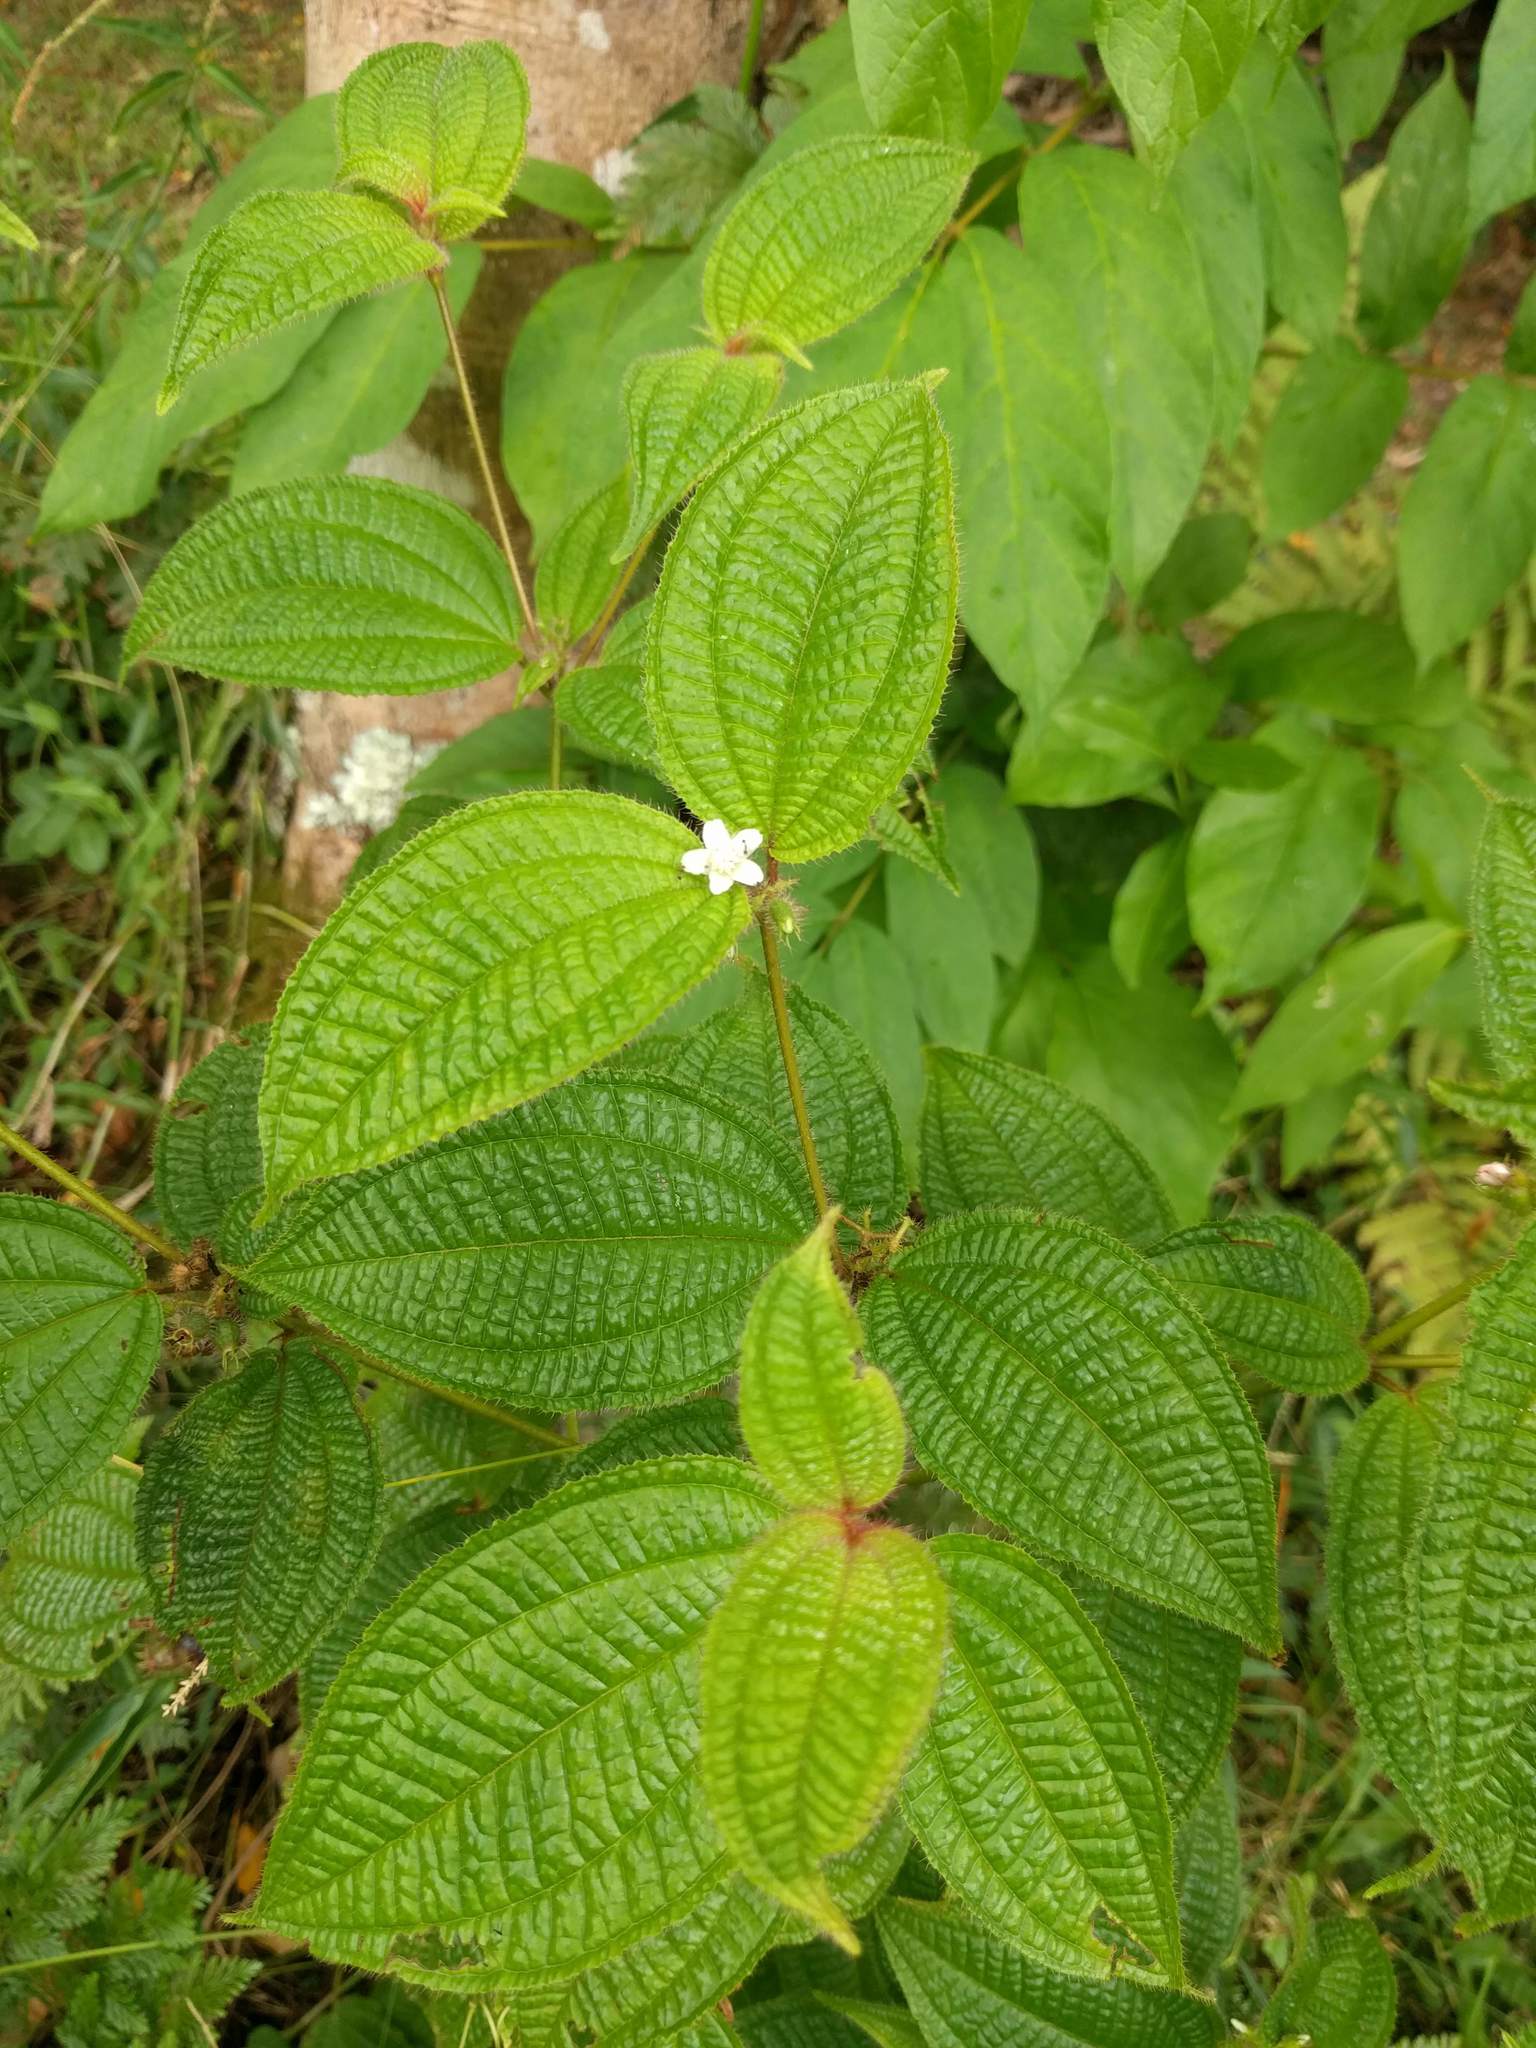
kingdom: Plantae
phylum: Tracheophyta
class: Magnoliopsida
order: Myrtales
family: Melastomataceae
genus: Miconia
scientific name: Miconia crenata
